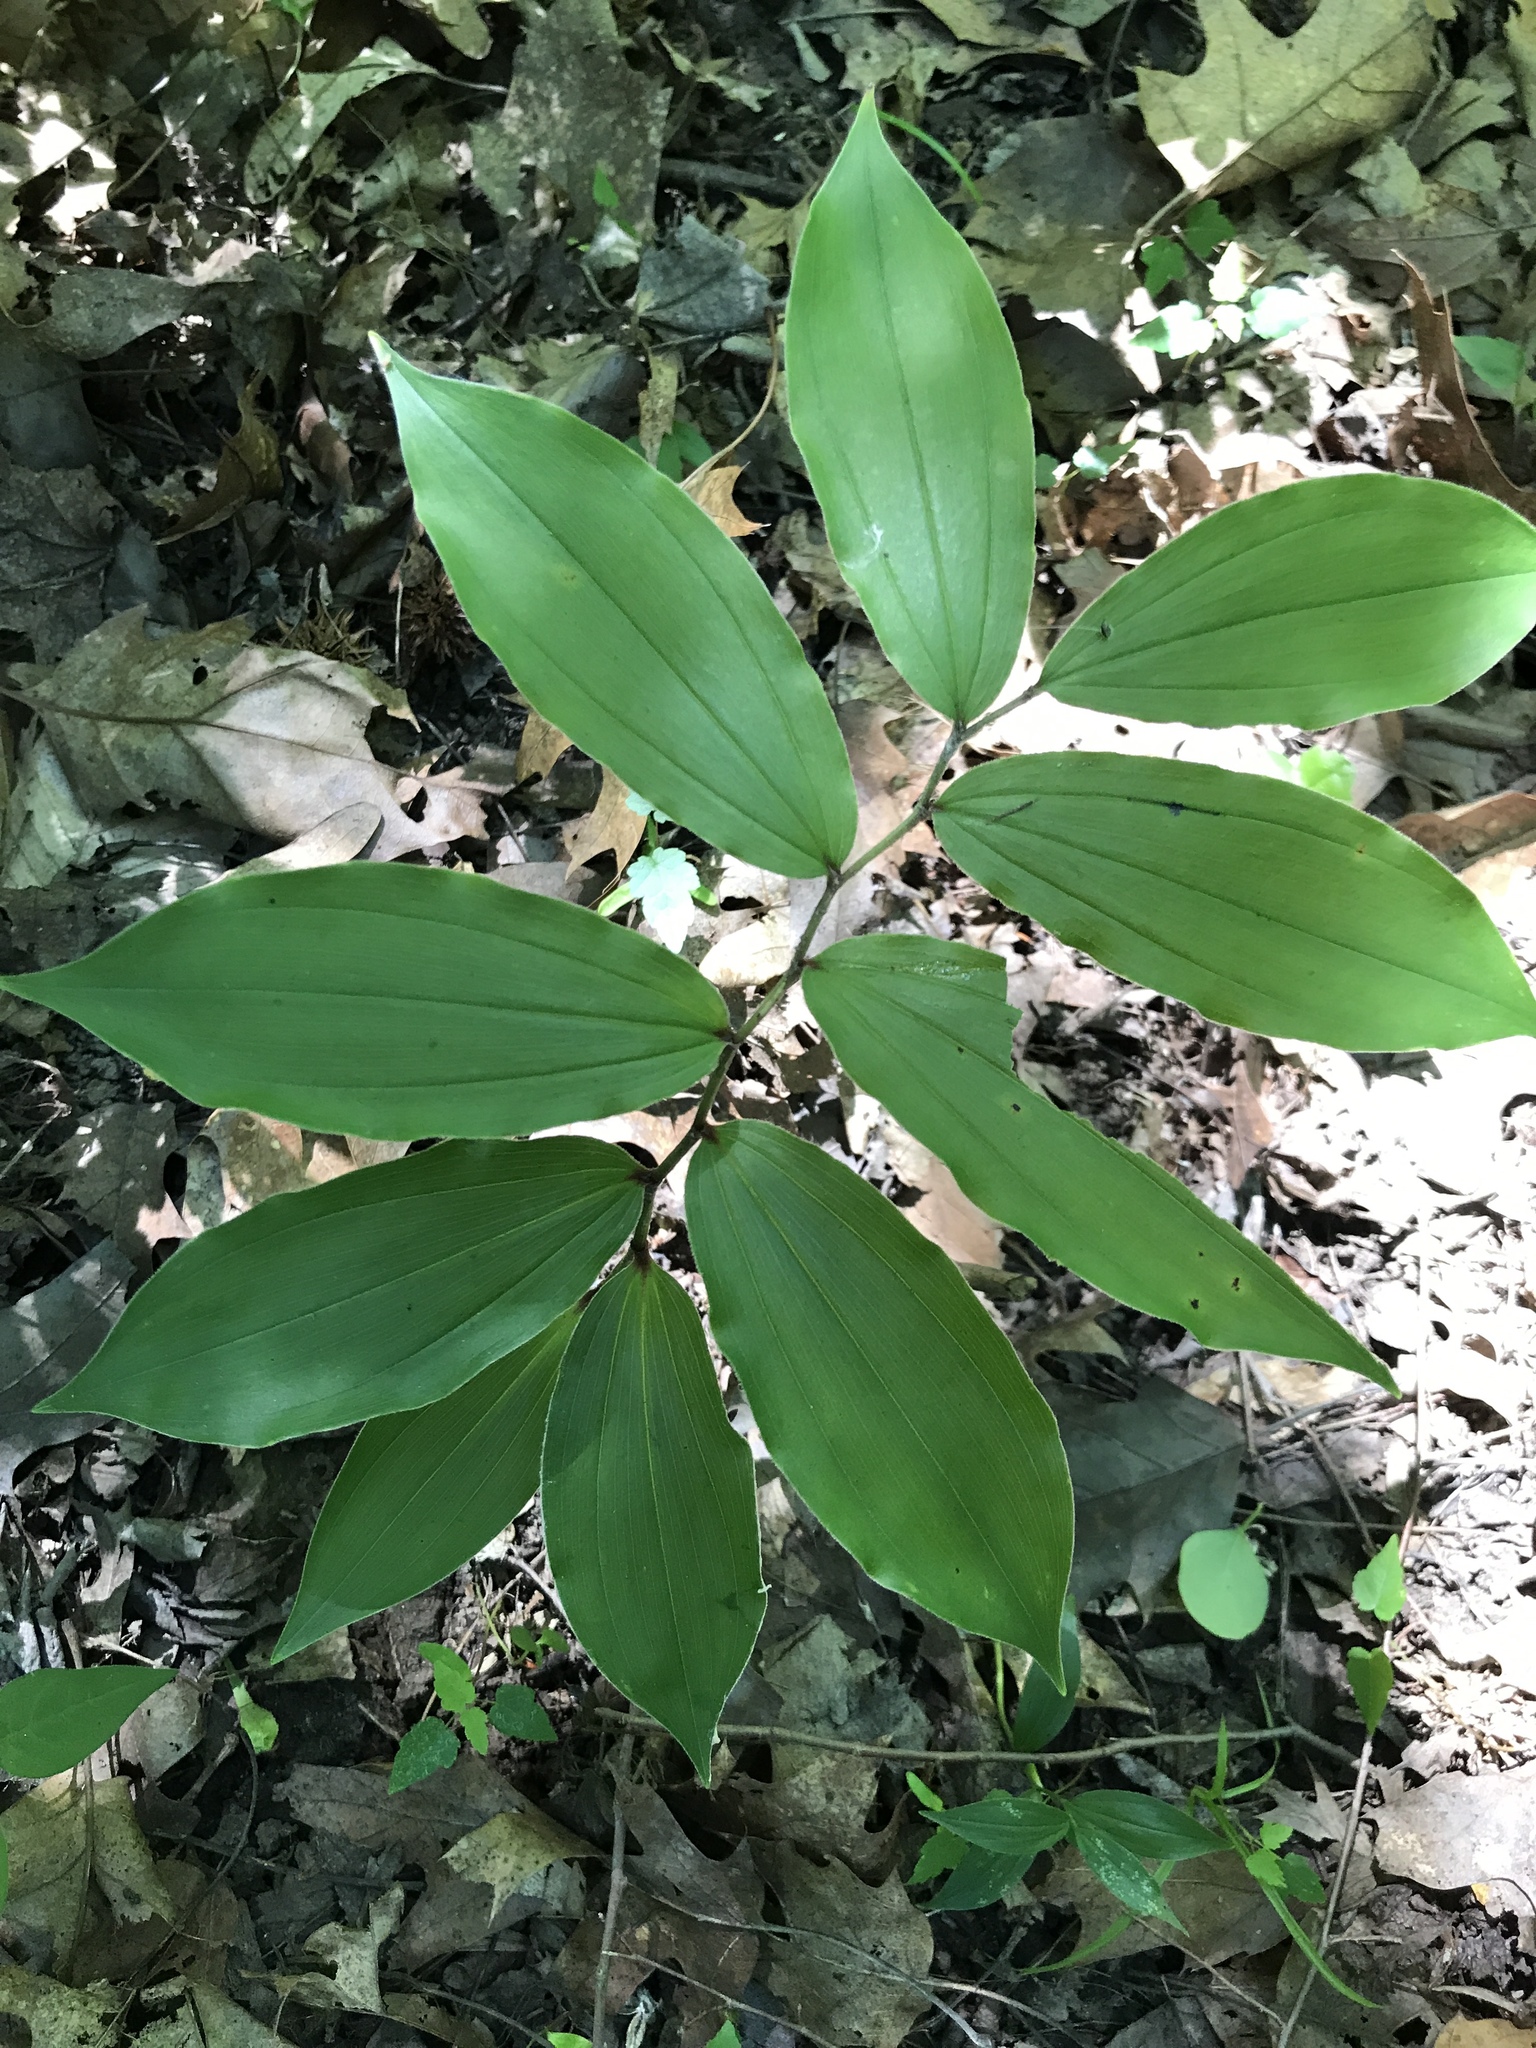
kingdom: Plantae
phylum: Tracheophyta
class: Liliopsida
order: Asparagales
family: Asparagaceae
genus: Maianthemum
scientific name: Maianthemum racemosum
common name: False spikenard
